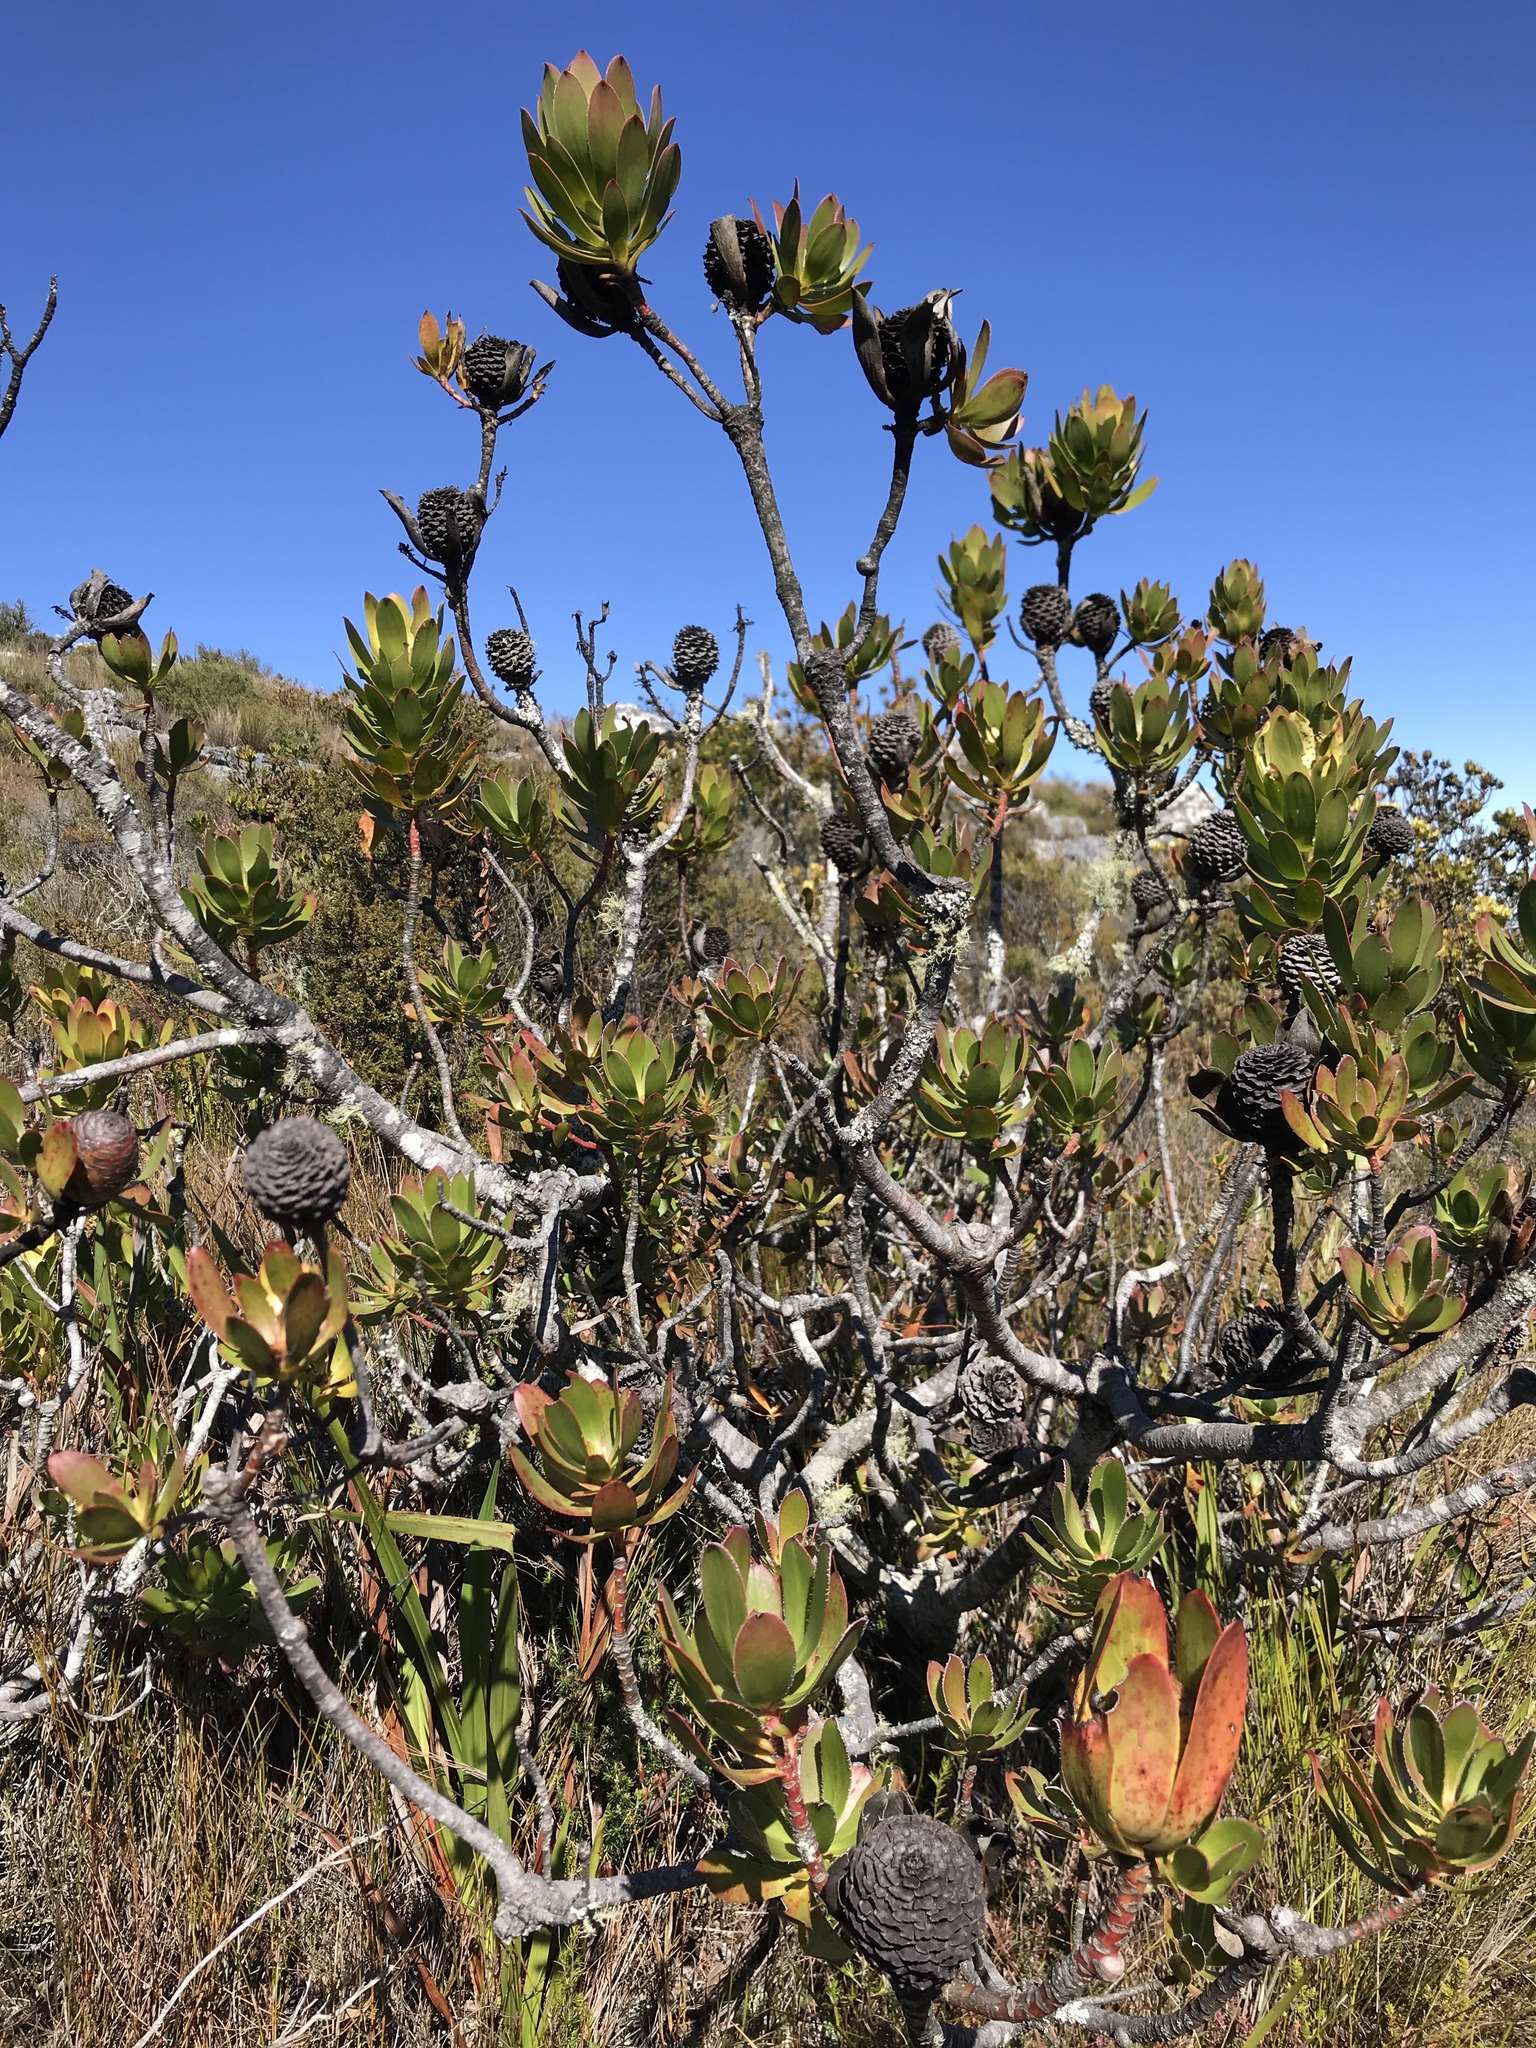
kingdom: Plantae
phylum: Tracheophyta
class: Magnoliopsida
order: Proteales
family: Proteaceae
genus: Leucadendron
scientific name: Leucadendron strobilinum
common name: Mountain rose
